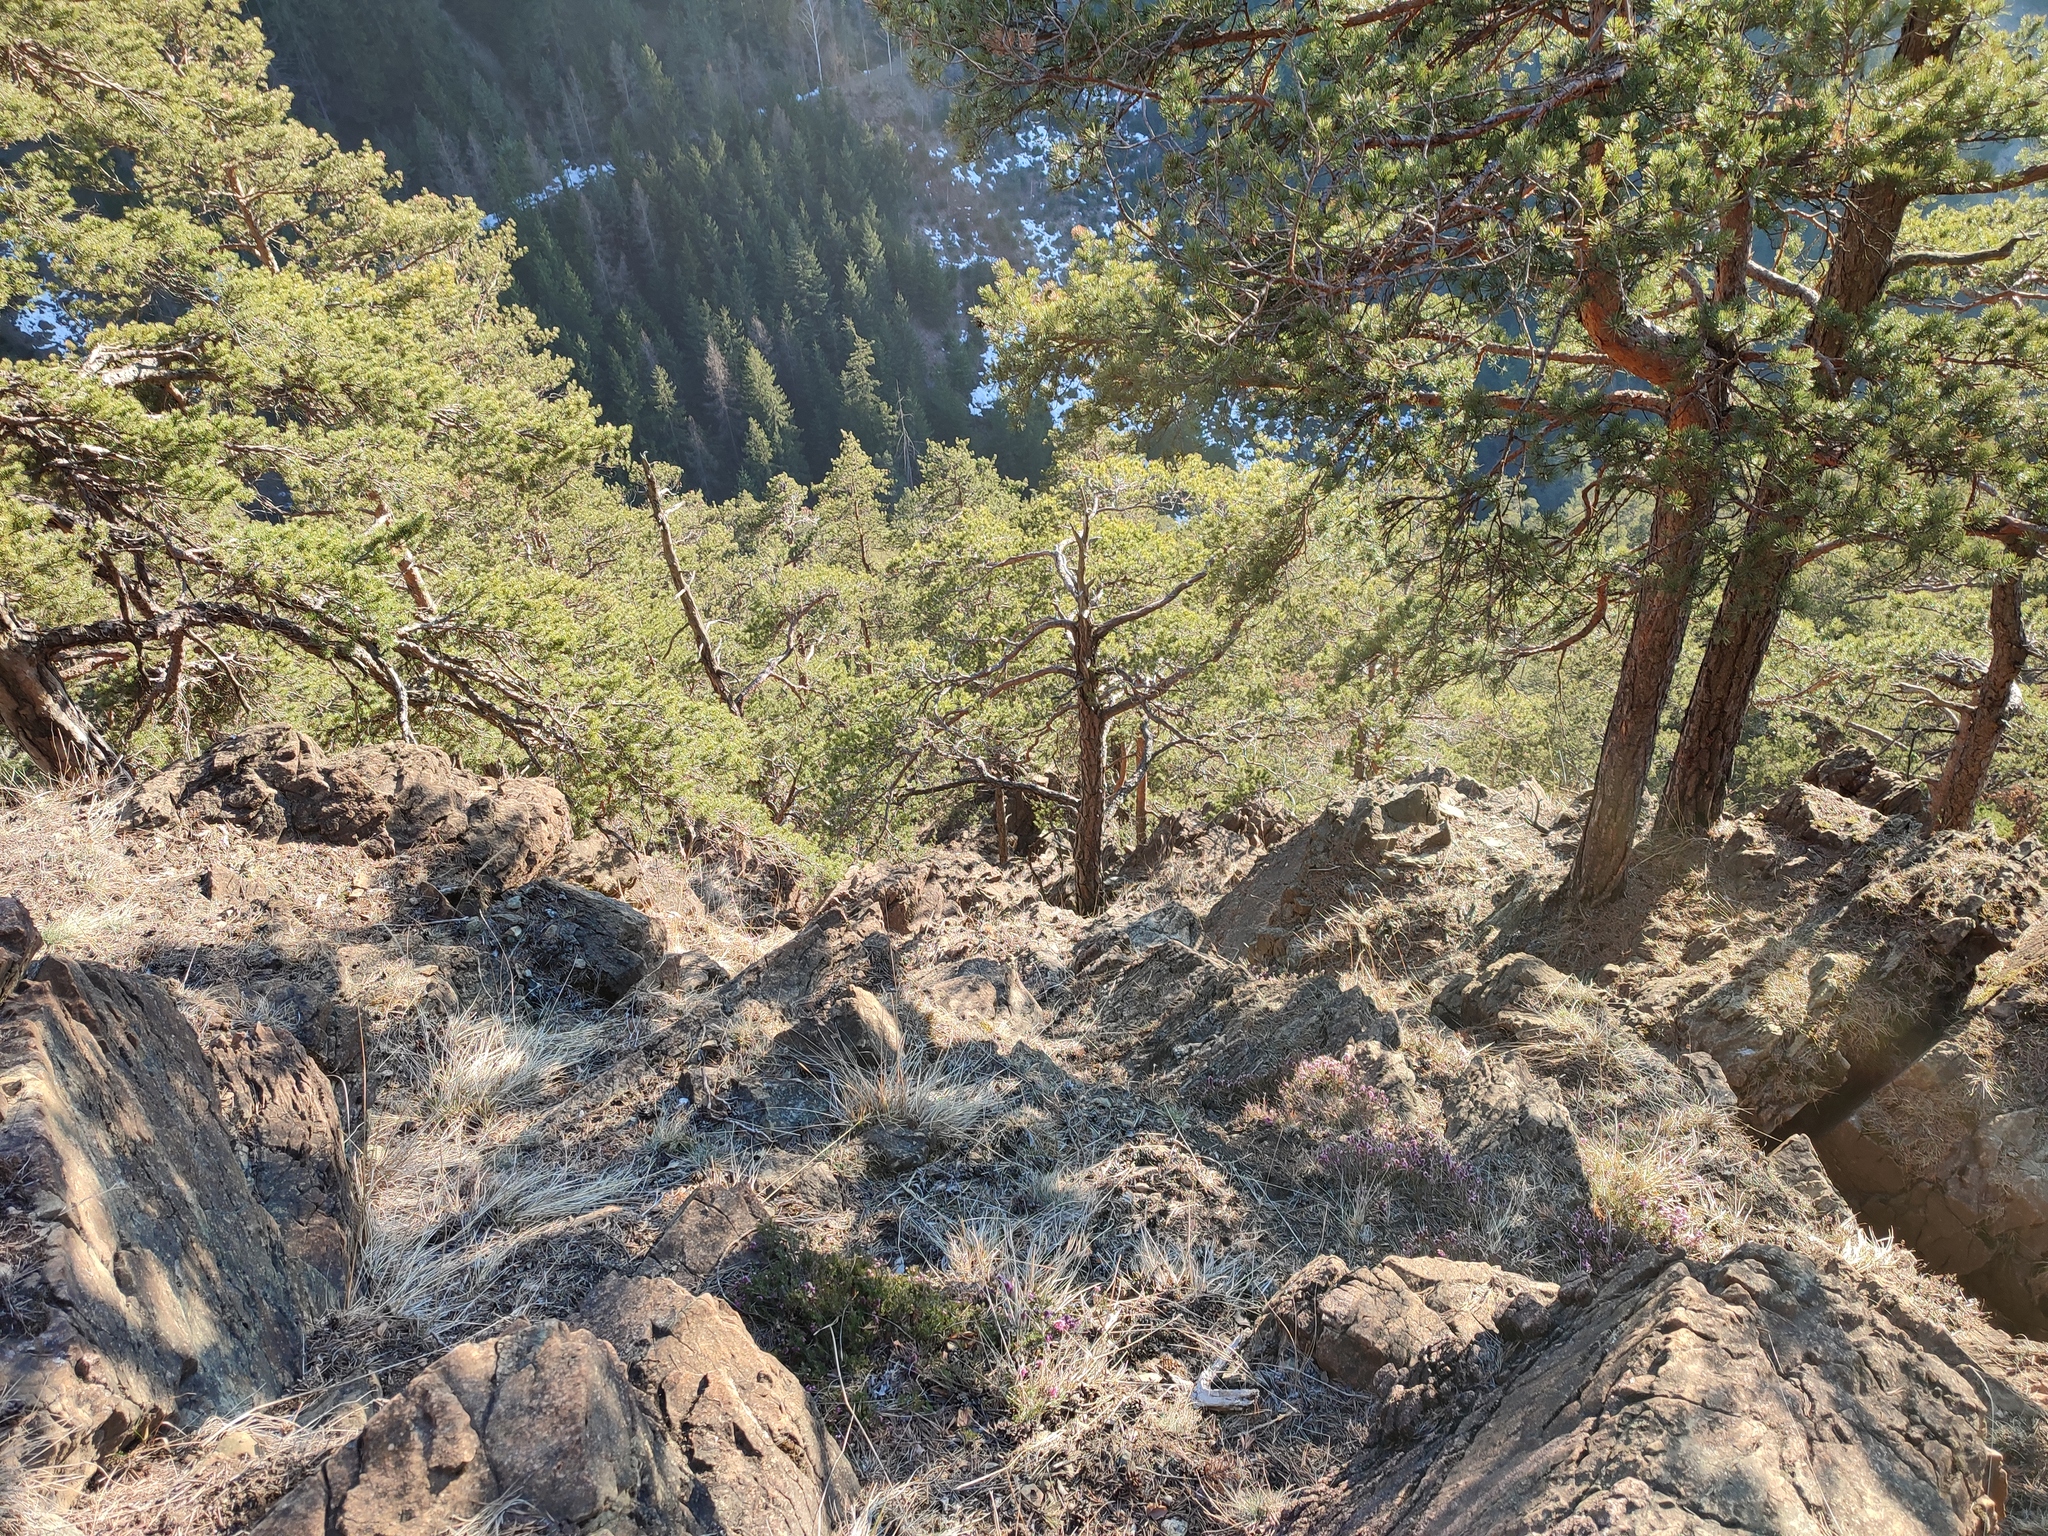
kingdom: Plantae
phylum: Tracheophyta
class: Pinopsida
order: Pinales
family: Pinaceae
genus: Pinus
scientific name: Pinus sylvestris
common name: Scots pine
